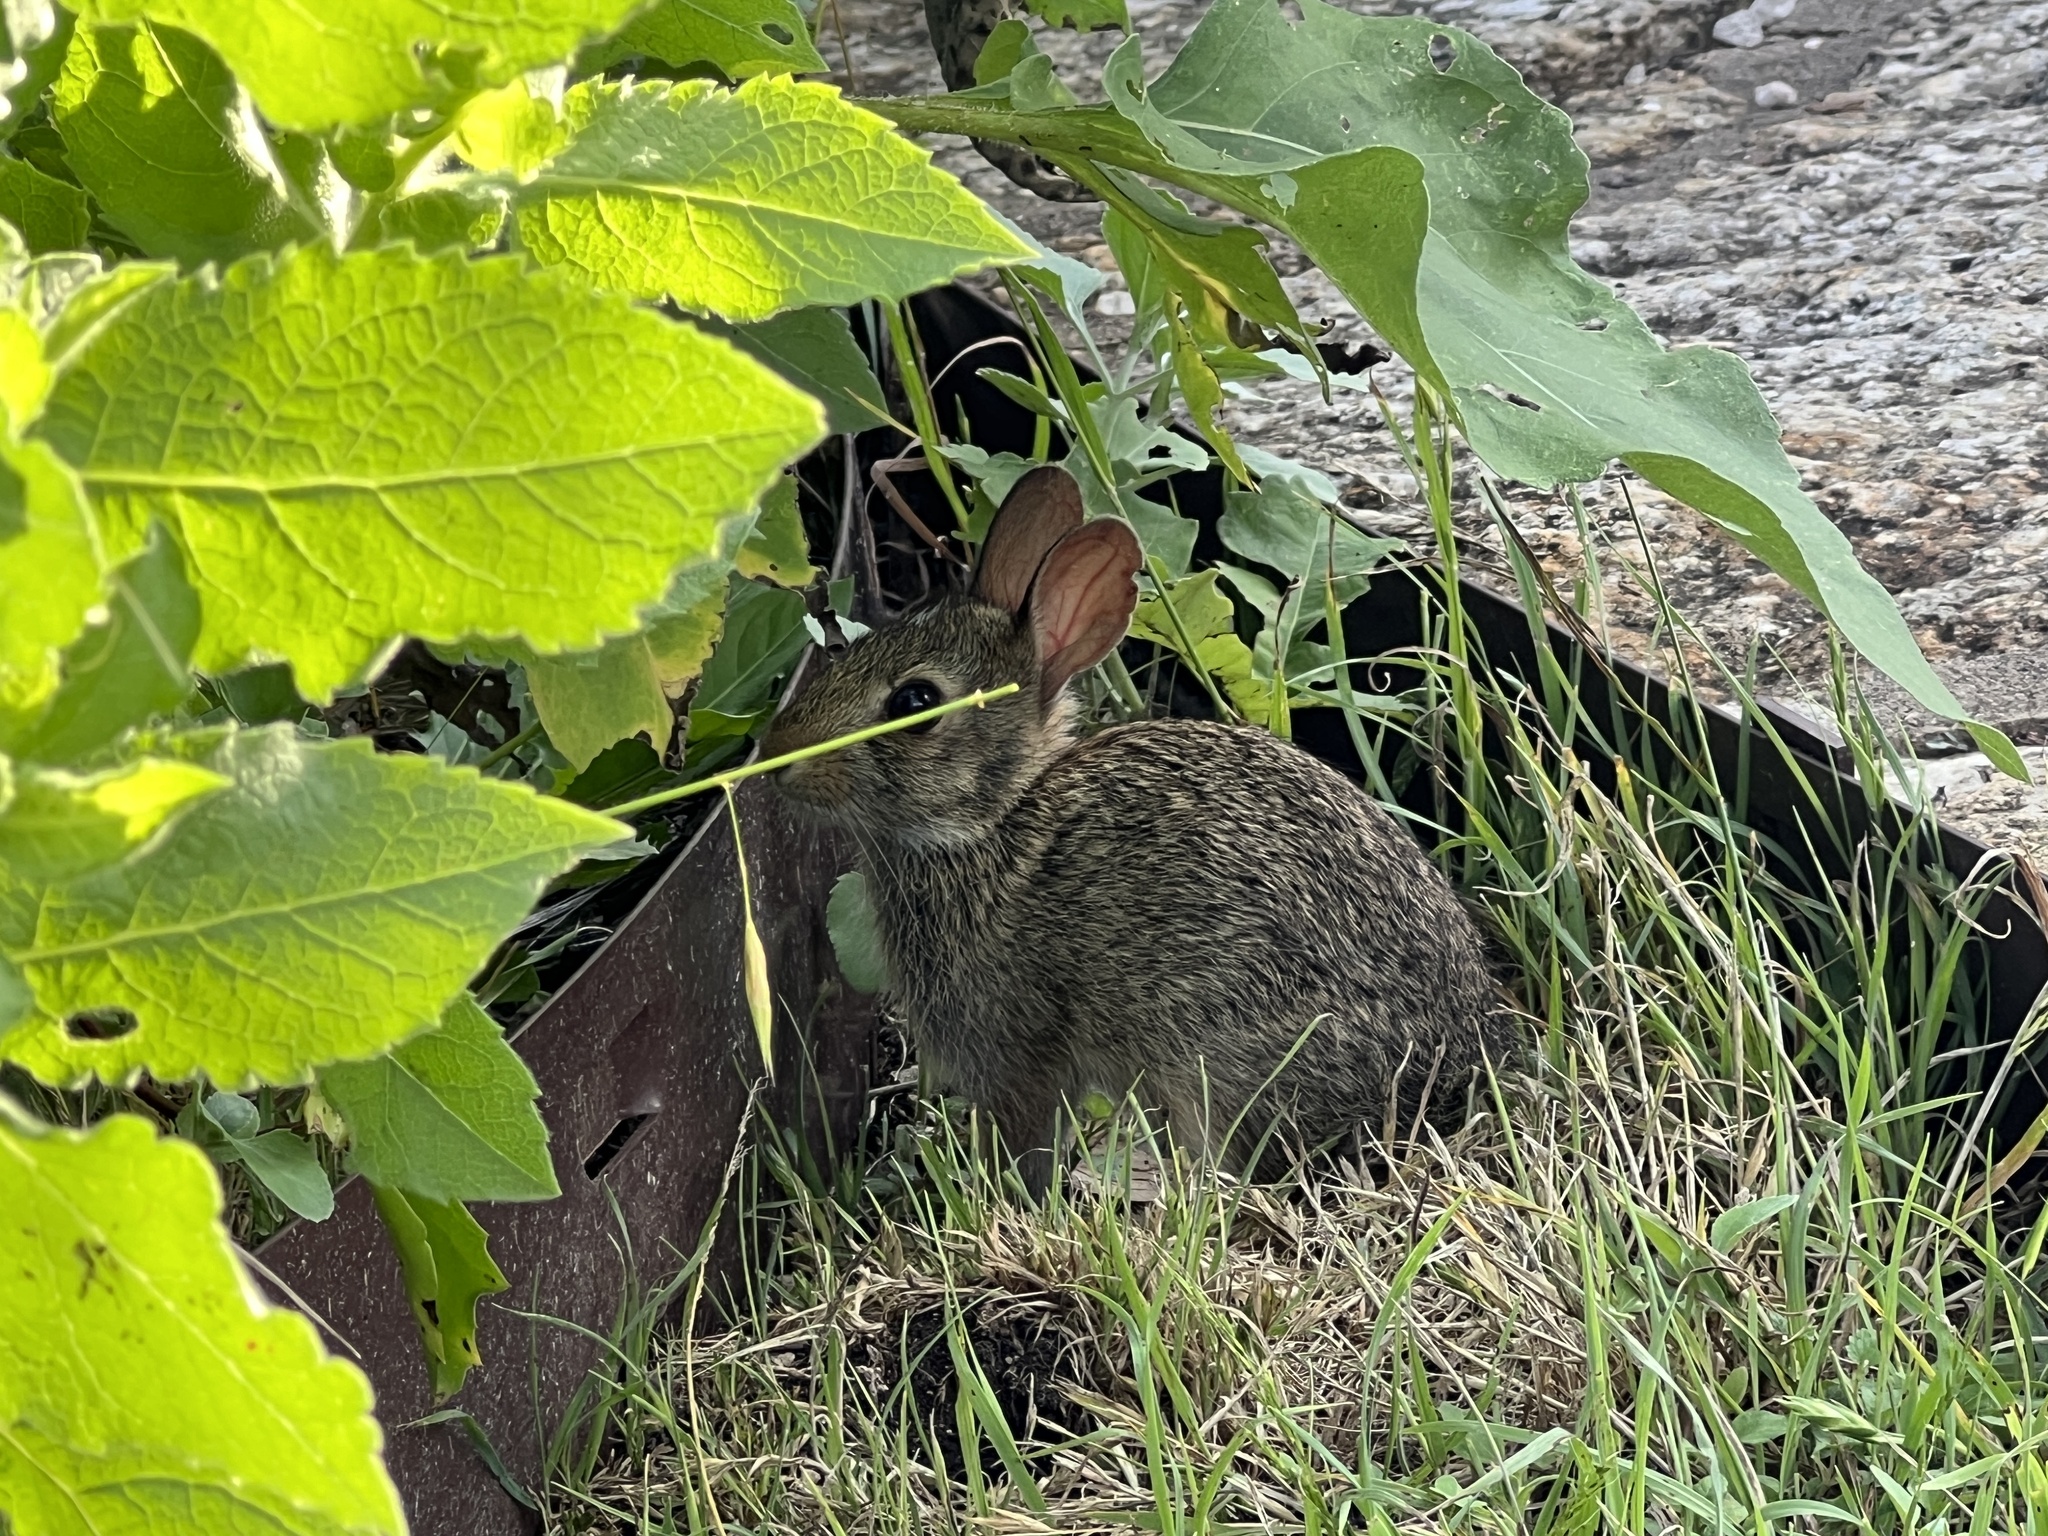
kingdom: Animalia
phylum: Chordata
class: Mammalia
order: Lagomorpha
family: Leporidae
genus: Sylvilagus
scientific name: Sylvilagus floridanus
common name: Eastern cottontail
